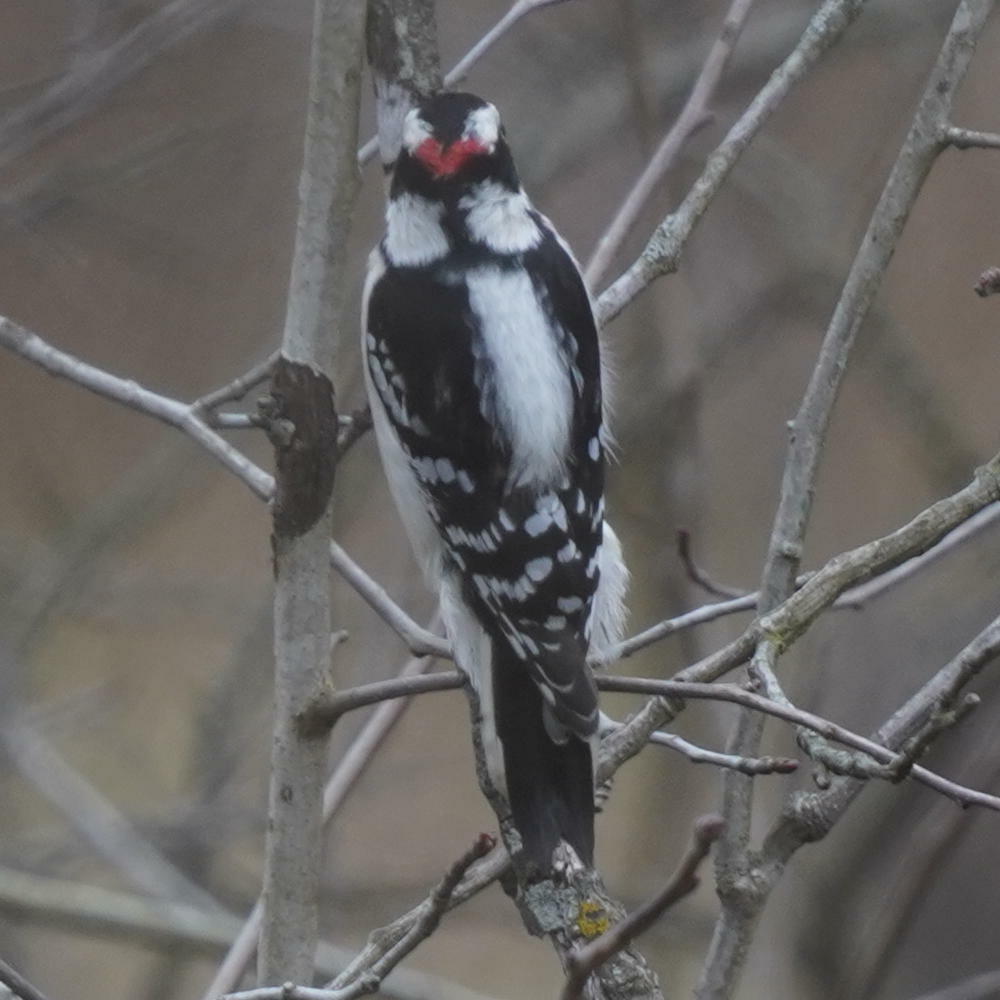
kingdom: Animalia
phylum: Chordata
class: Aves
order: Piciformes
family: Picidae
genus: Dryobates
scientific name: Dryobates pubescens
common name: Downy woodpecker
